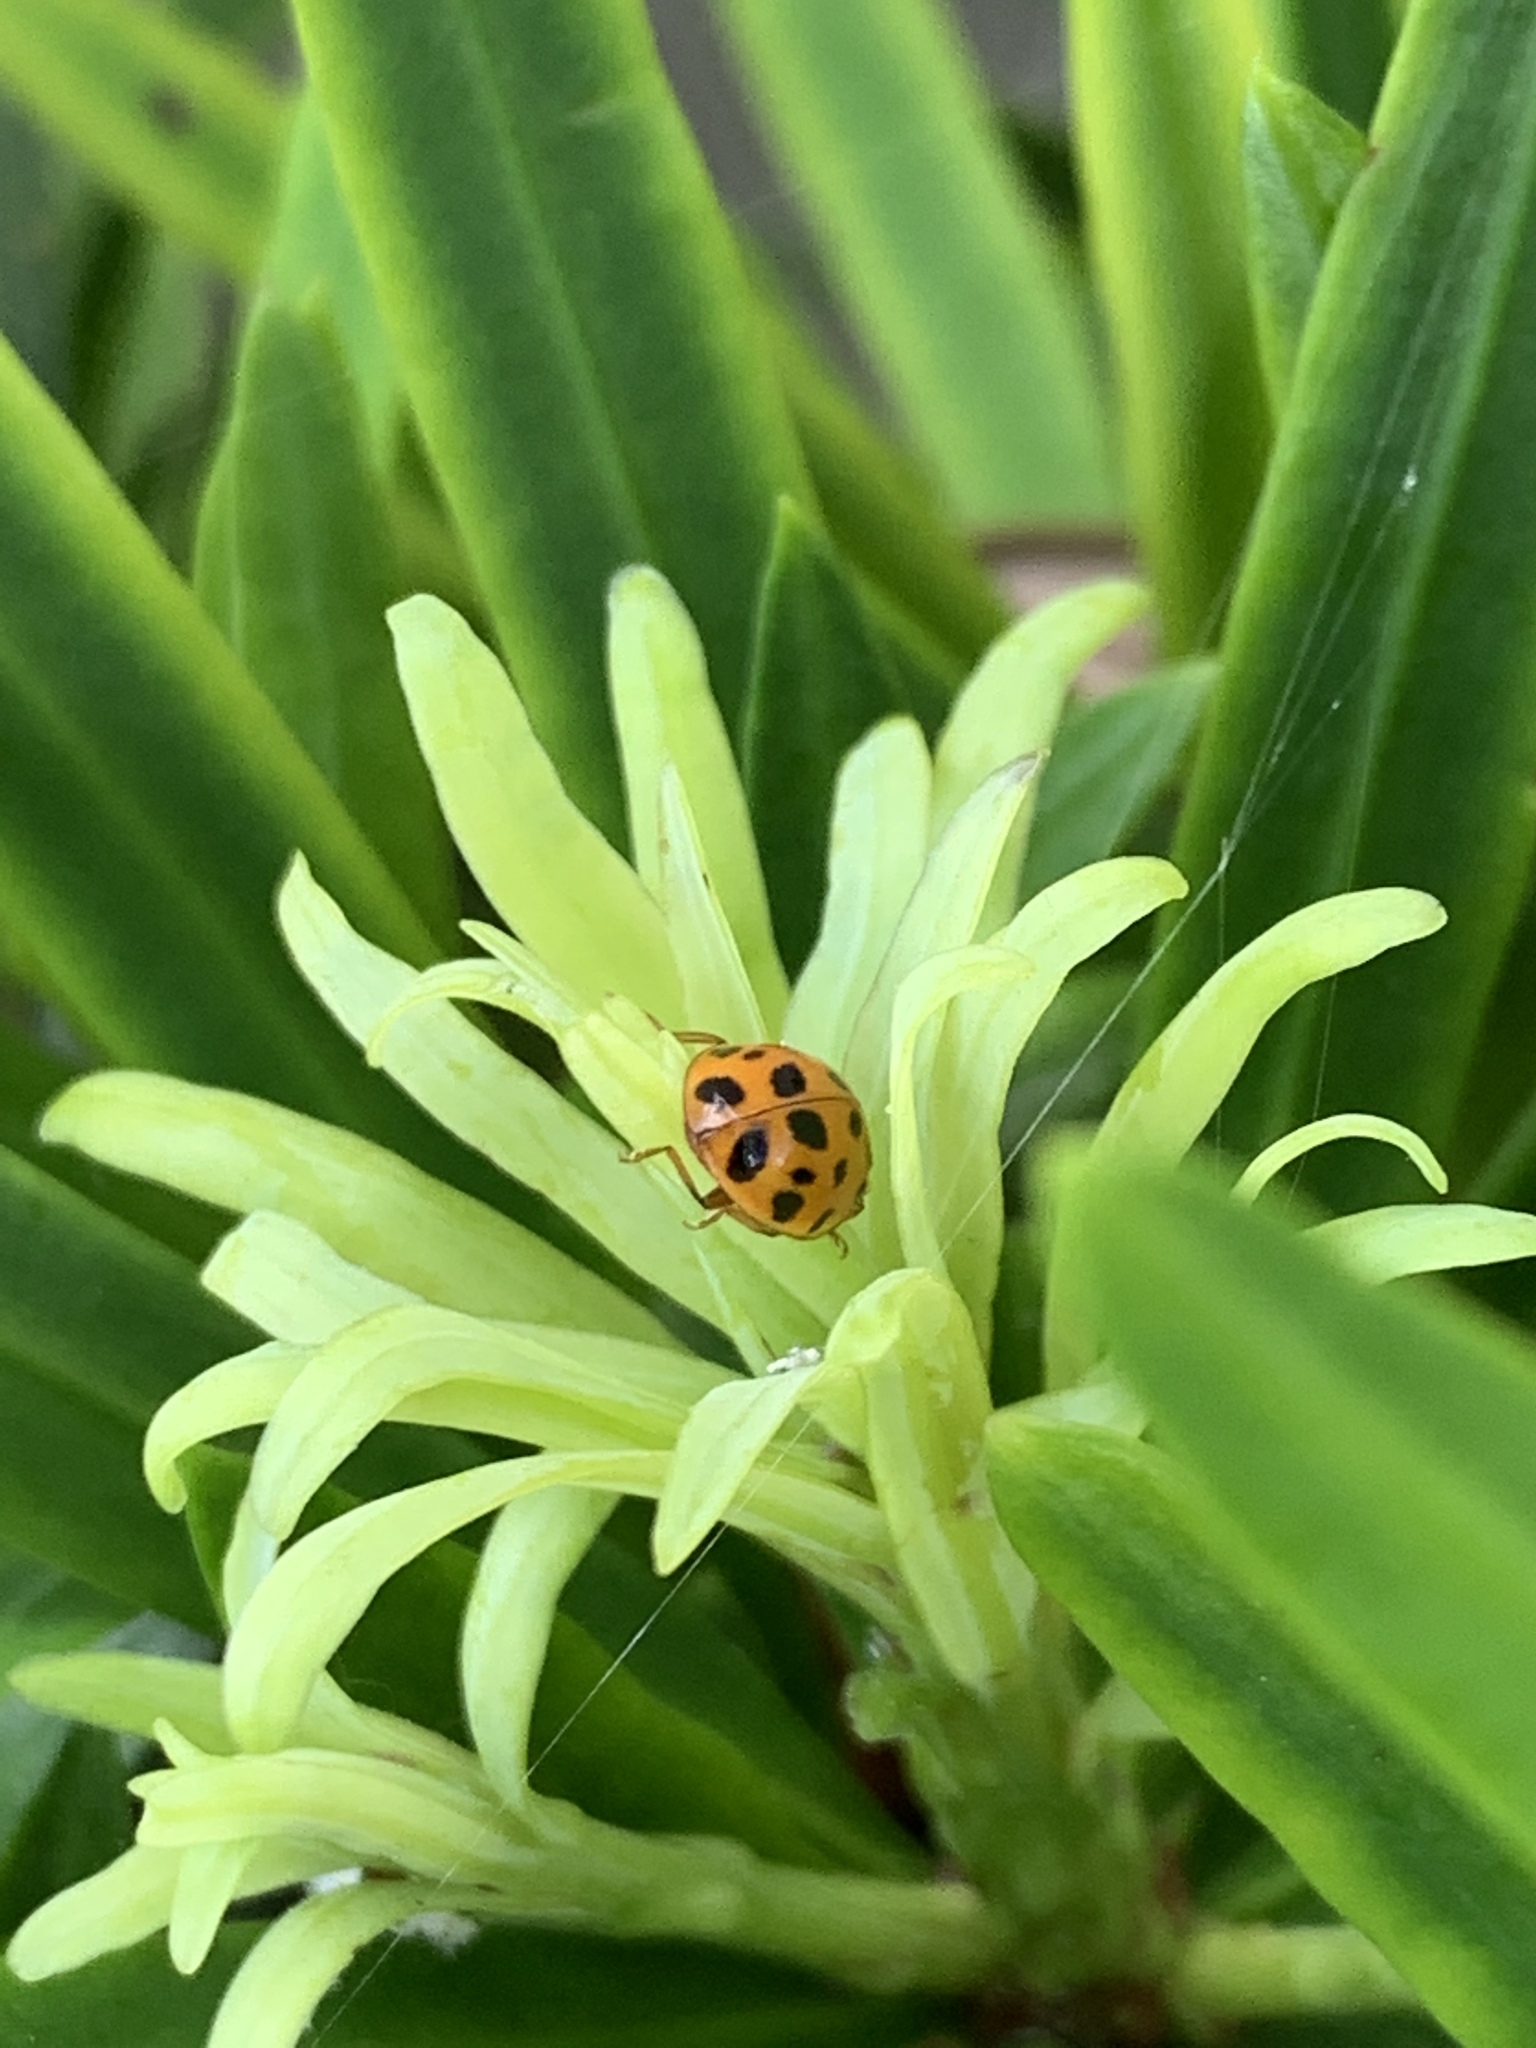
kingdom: Animalia
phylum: Arthropoda
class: Insecta
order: Coleoptera
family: Coccinellidae
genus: Harmonia
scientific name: Harmonia axyridis
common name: Harlequin ladybird
